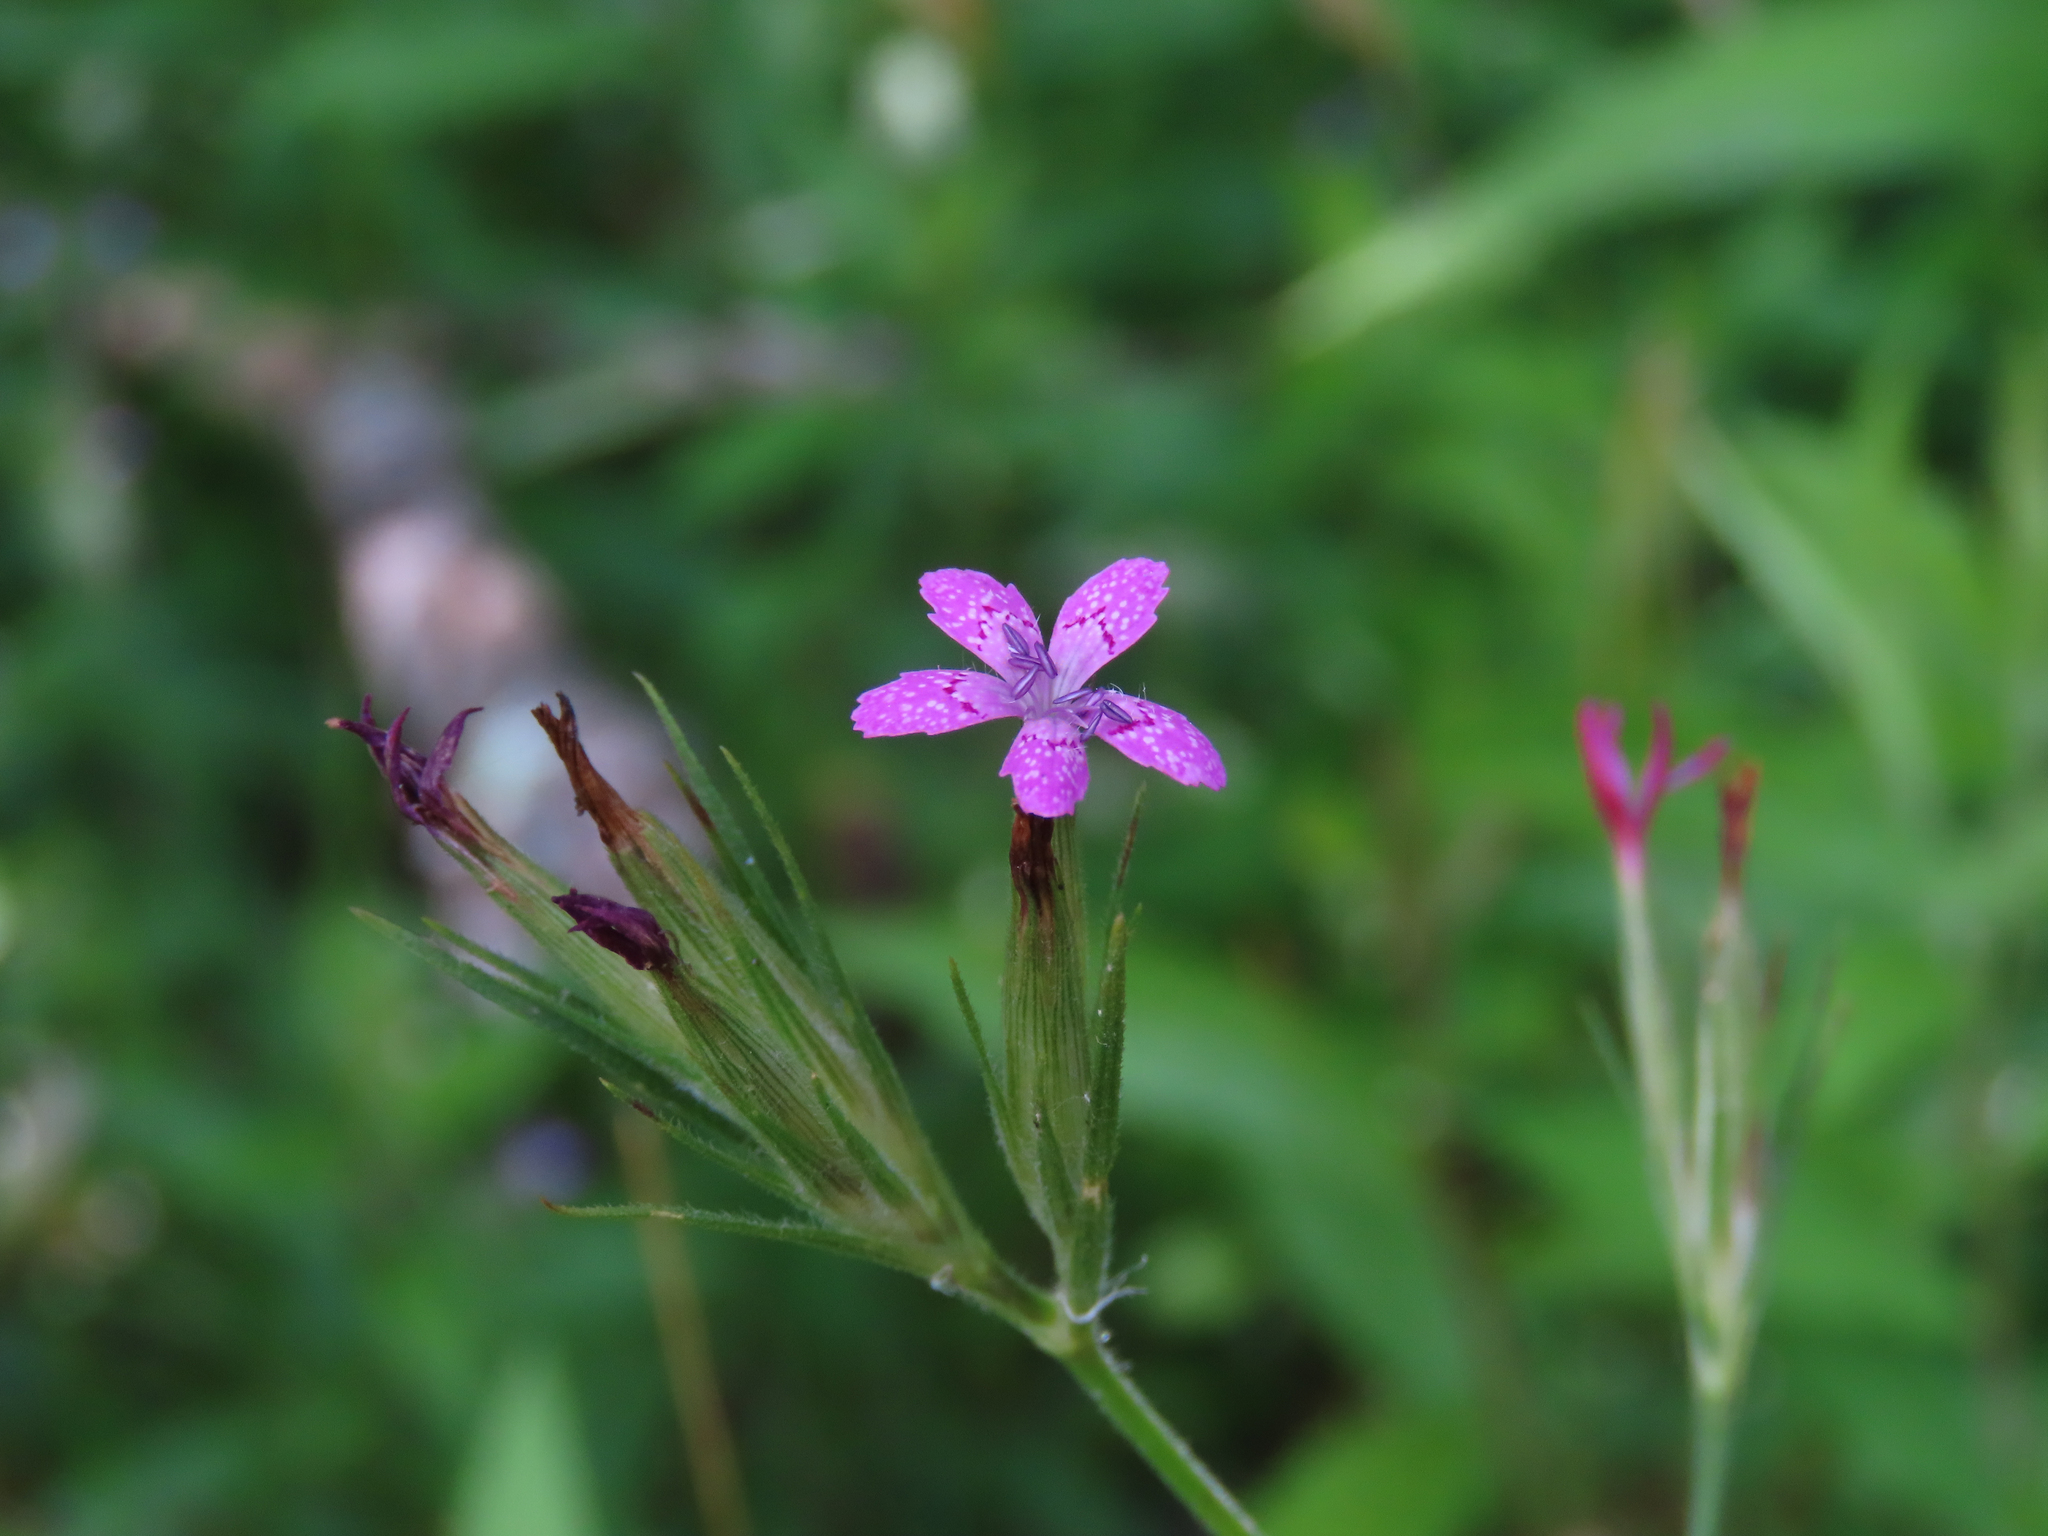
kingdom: Plantae
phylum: Tracheophyta
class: Magnoliopsida
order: Caryophyllales
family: Caryophyllaceae
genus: Dianthus
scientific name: Dianthus armeria
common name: Deptford pink
